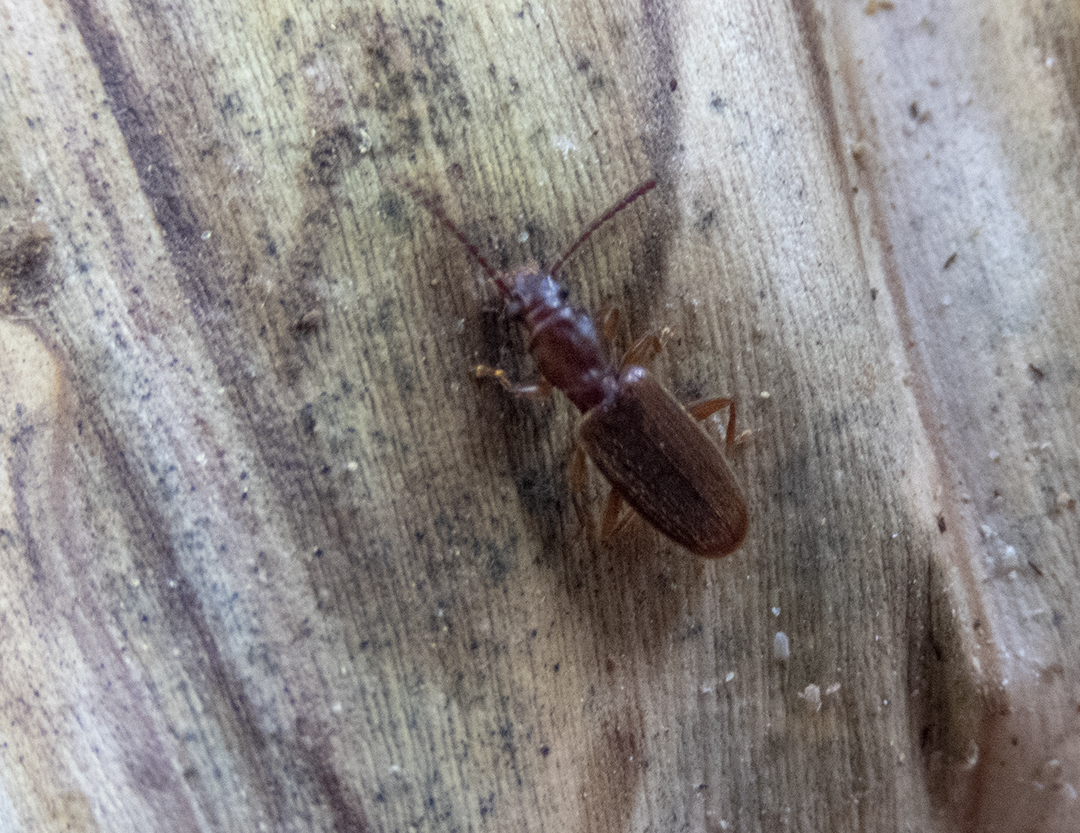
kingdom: Animalia
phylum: Arthropoda
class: Insecta
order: Coleoptera
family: Silvanidae
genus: Cryptamorpha
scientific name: Cryptamorpha brevicornis
